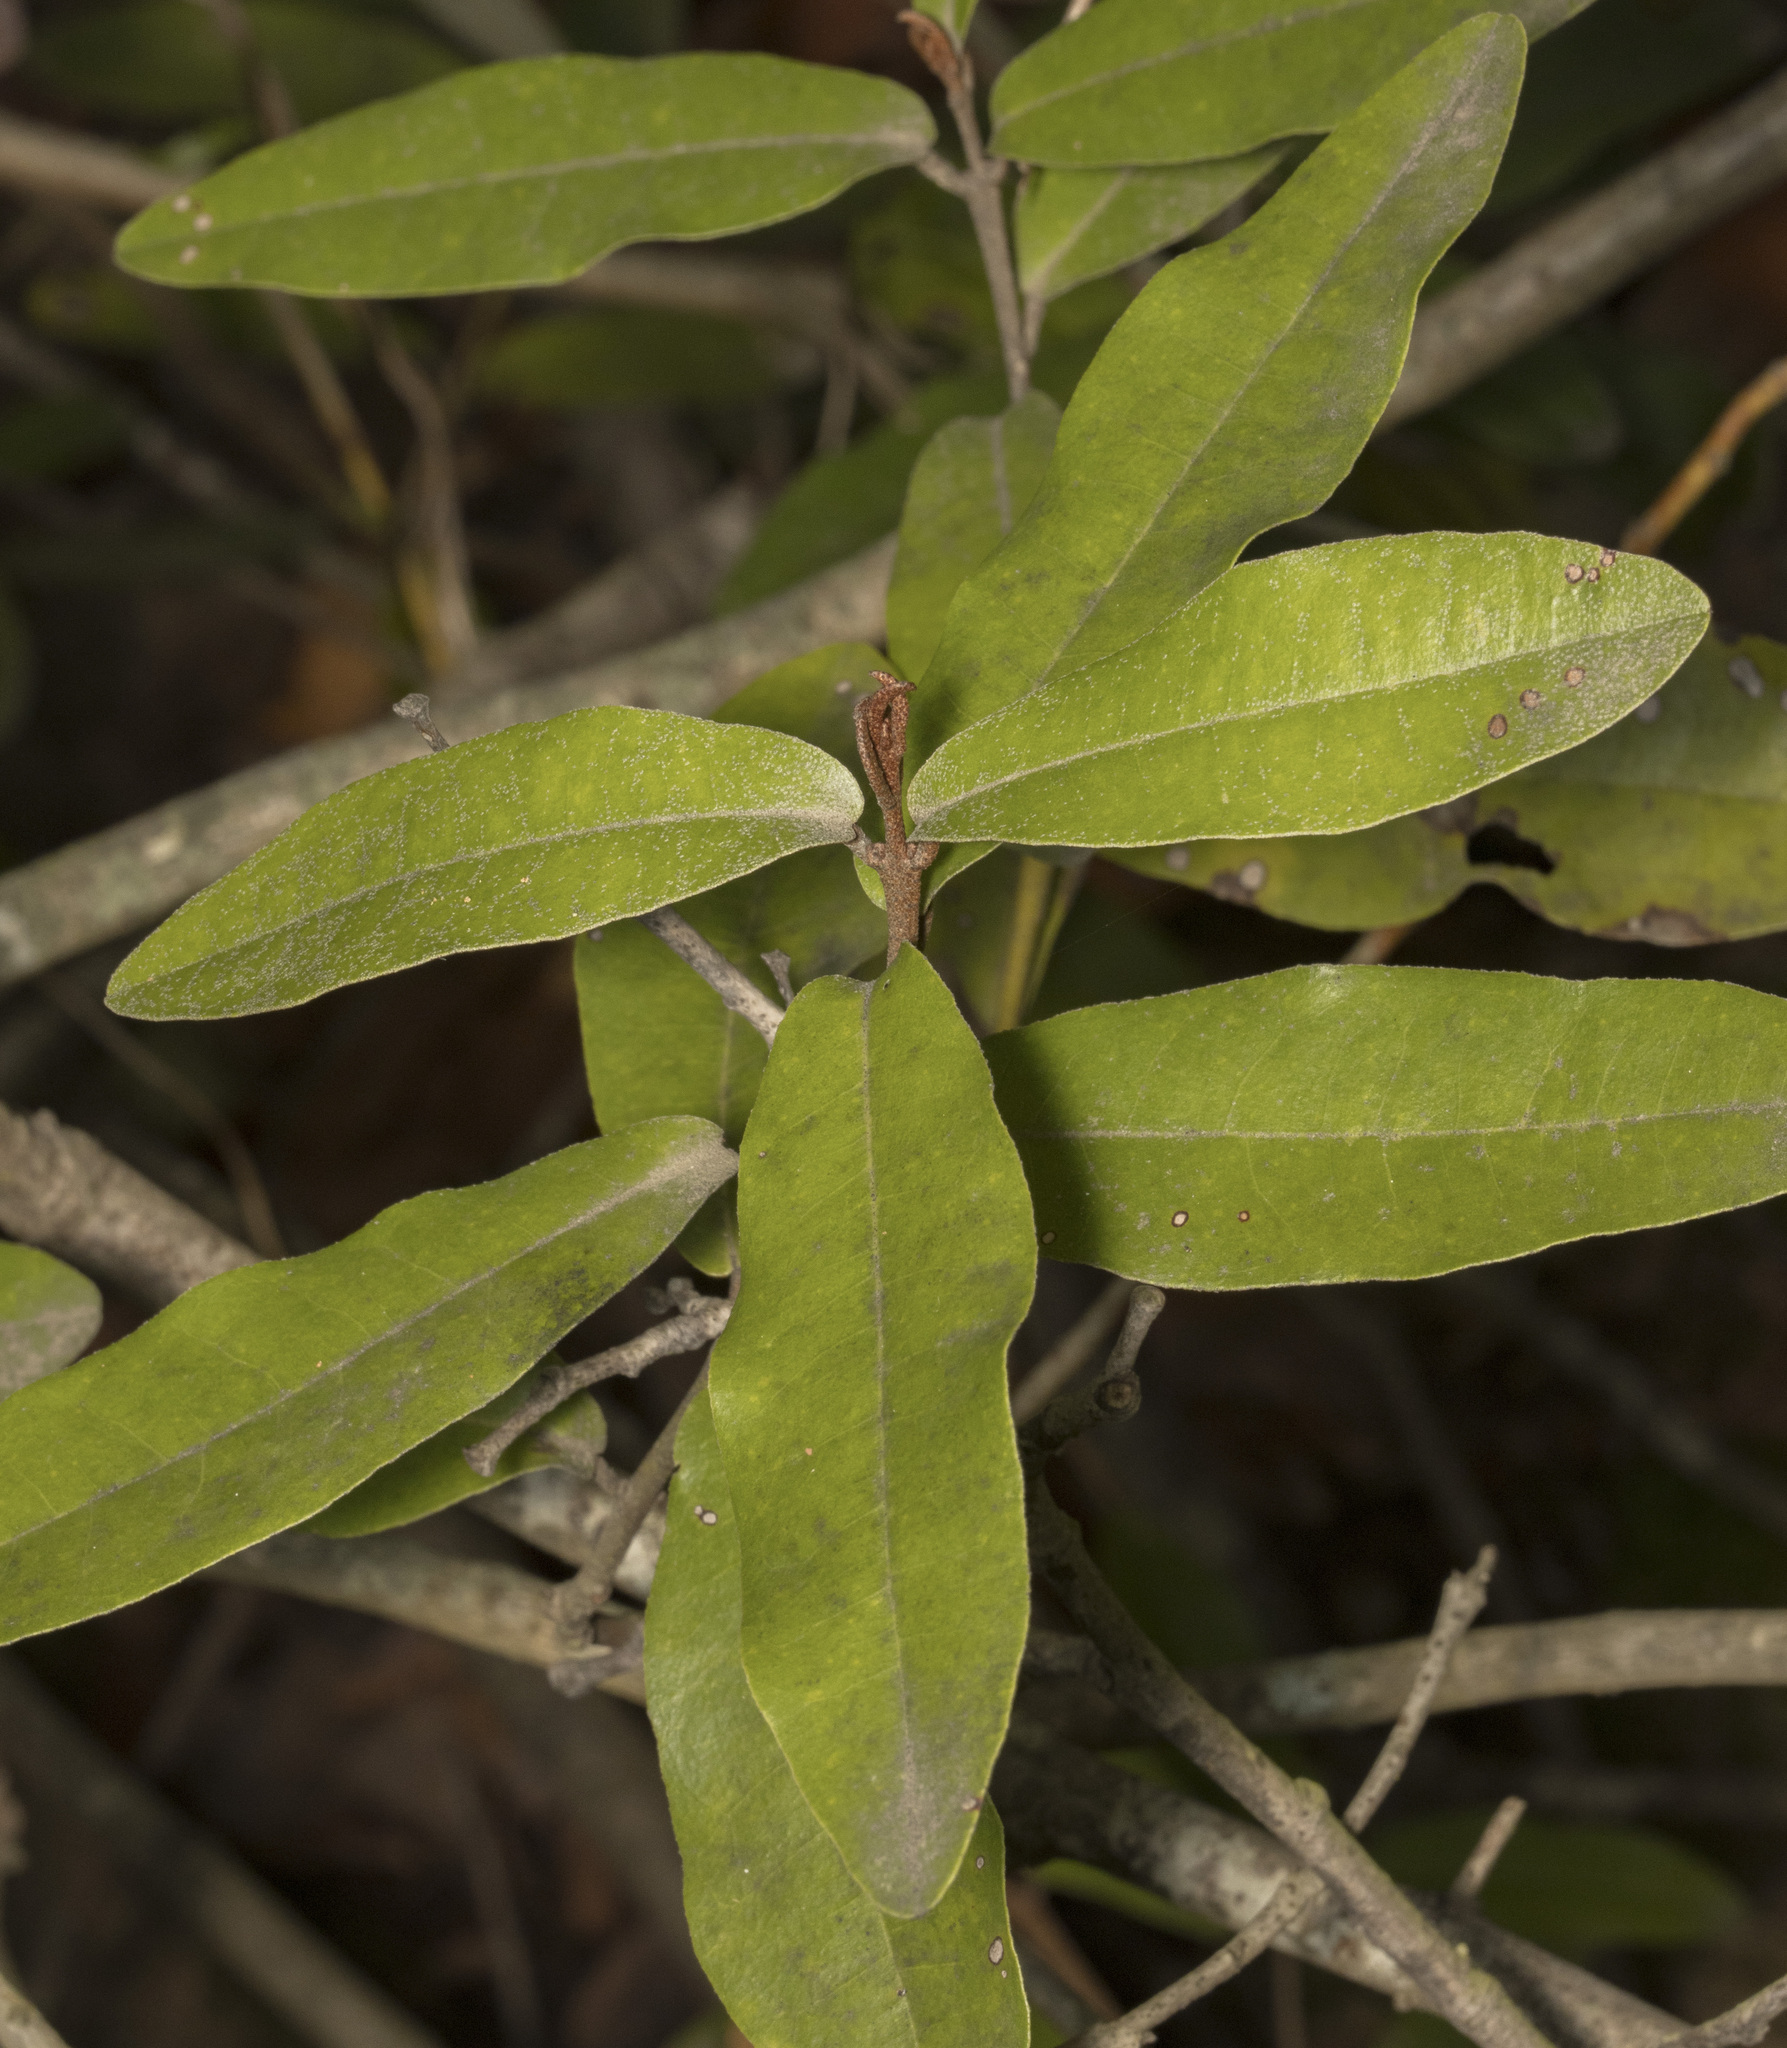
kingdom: Plantae
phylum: Tracheophyta
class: Magnoliopsida
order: Berberidopsidales
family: Aextoxicaceae
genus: Aextoxicon
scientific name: Aextoxicon punctatum
